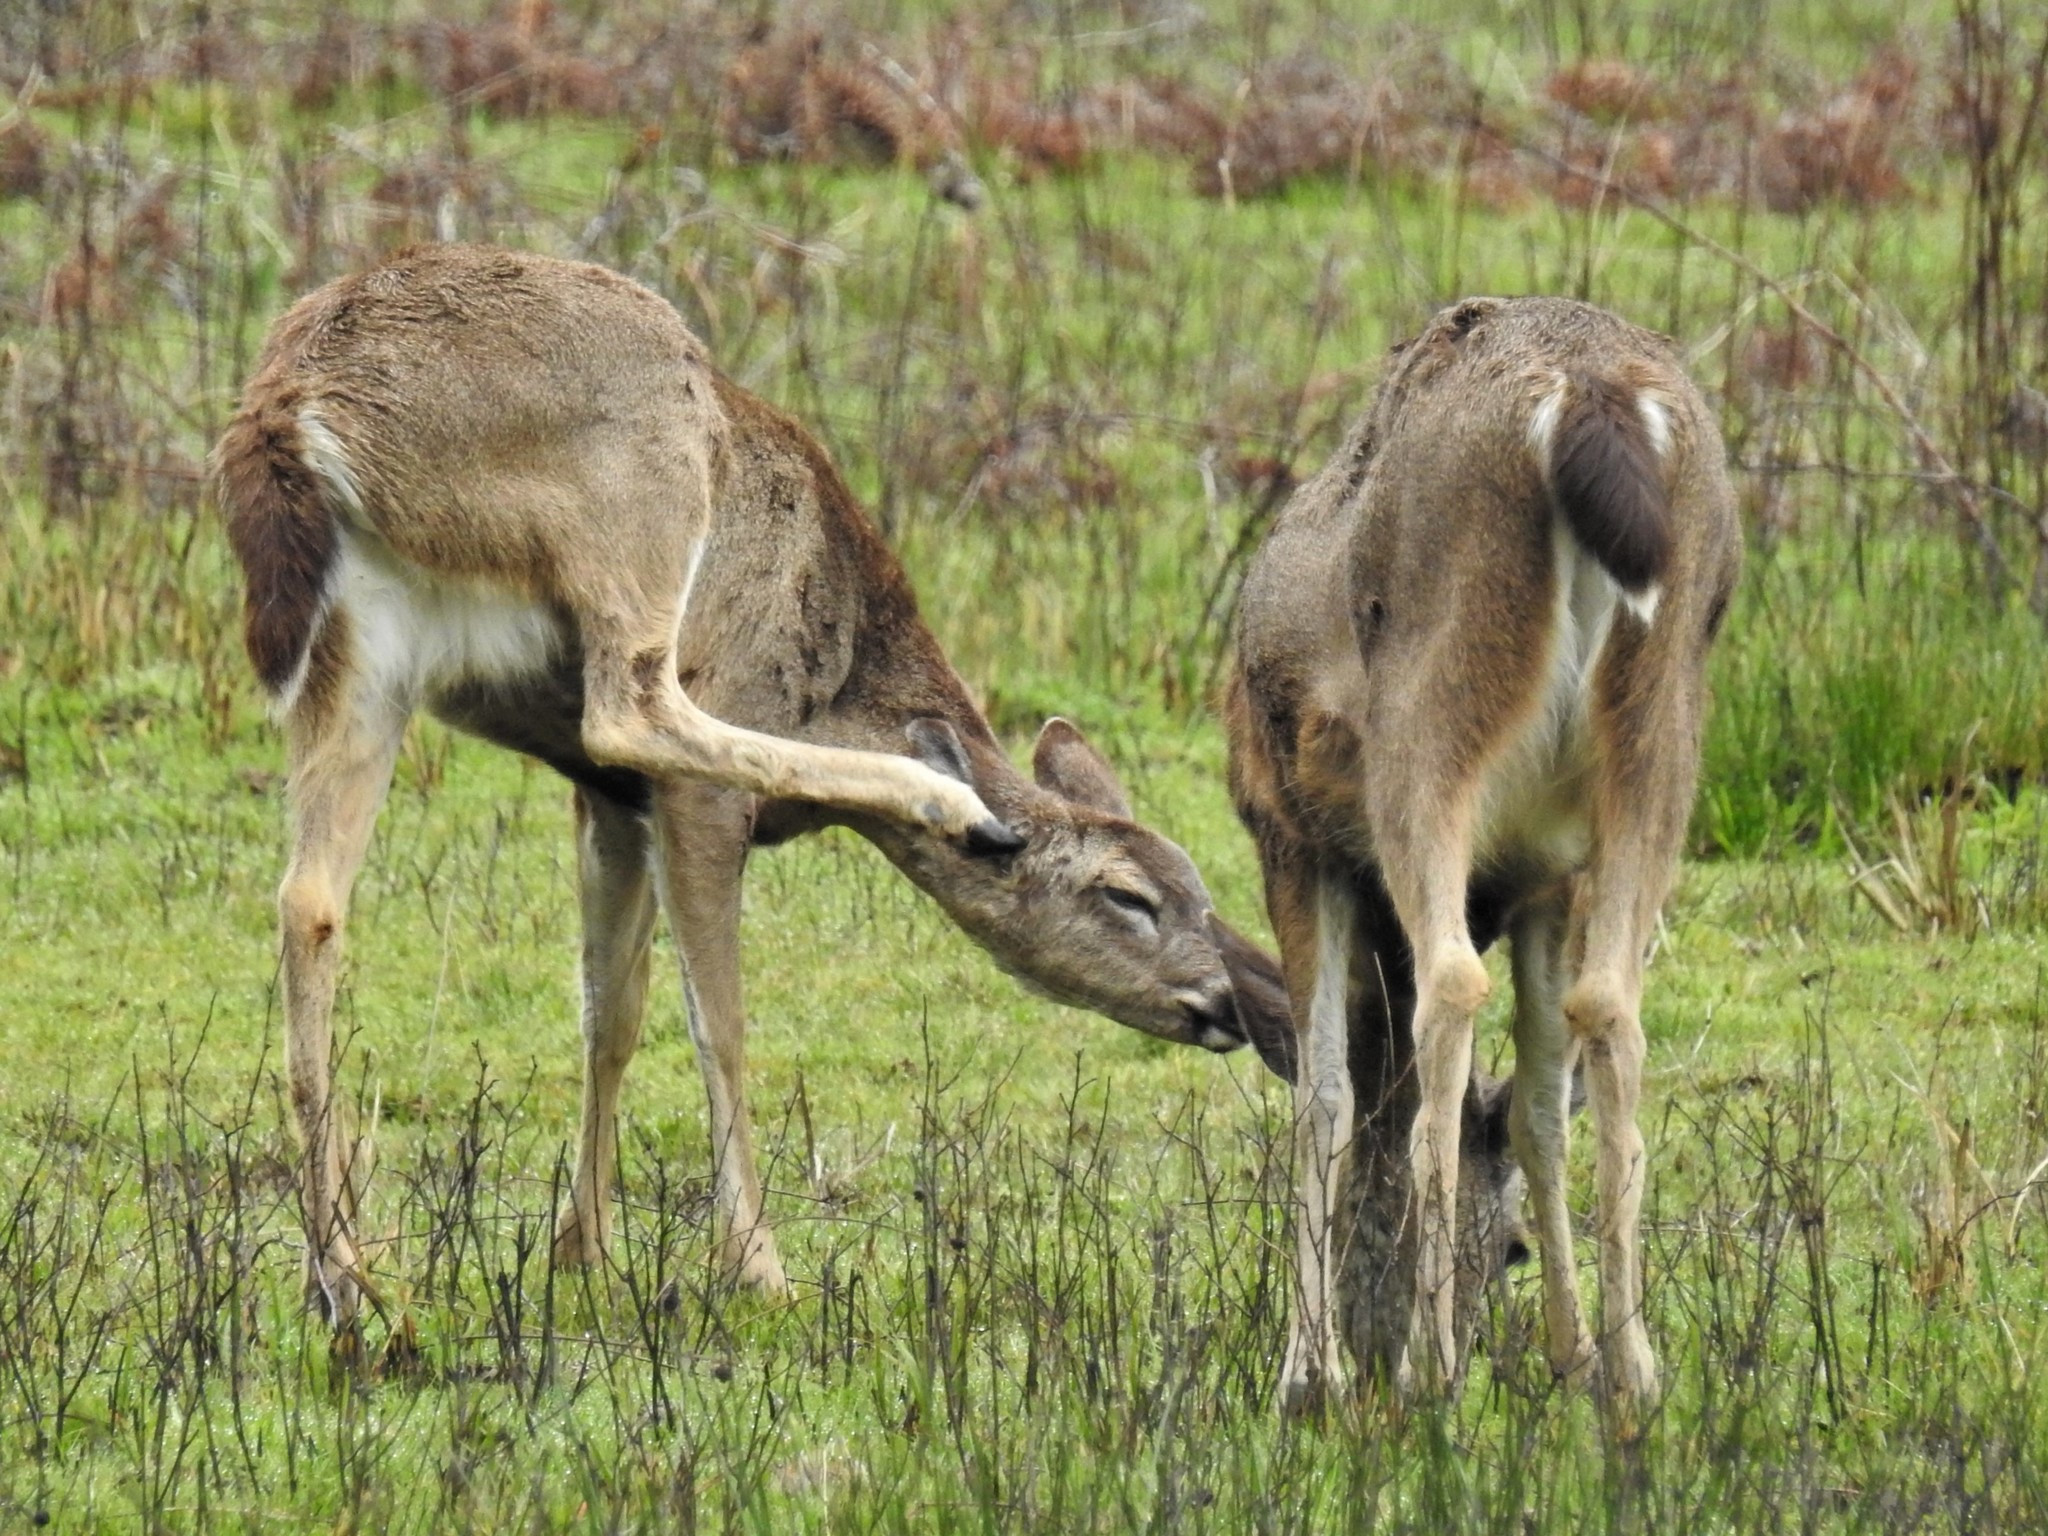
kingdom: Animalia
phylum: Chordata
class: Mammalia
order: Artiodactyla
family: Cervidae
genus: Odocoileus
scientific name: Odocoileus hemionus
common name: Mule deer
